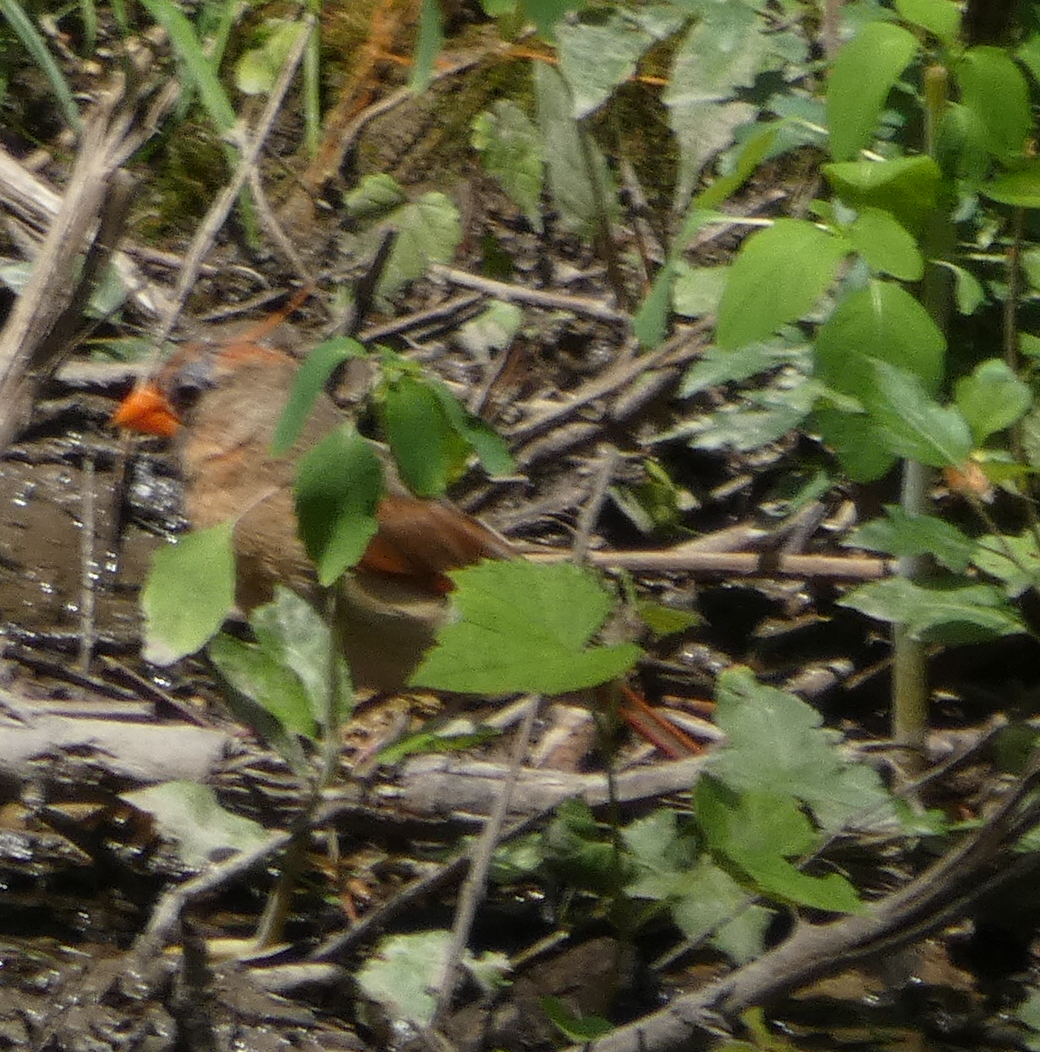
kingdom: Animalia
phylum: Chordata
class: Aves
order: Passeriformes
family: Cardinalidae
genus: Cardinalis
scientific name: Cardinalis cardinalis
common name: Northern cardinal
